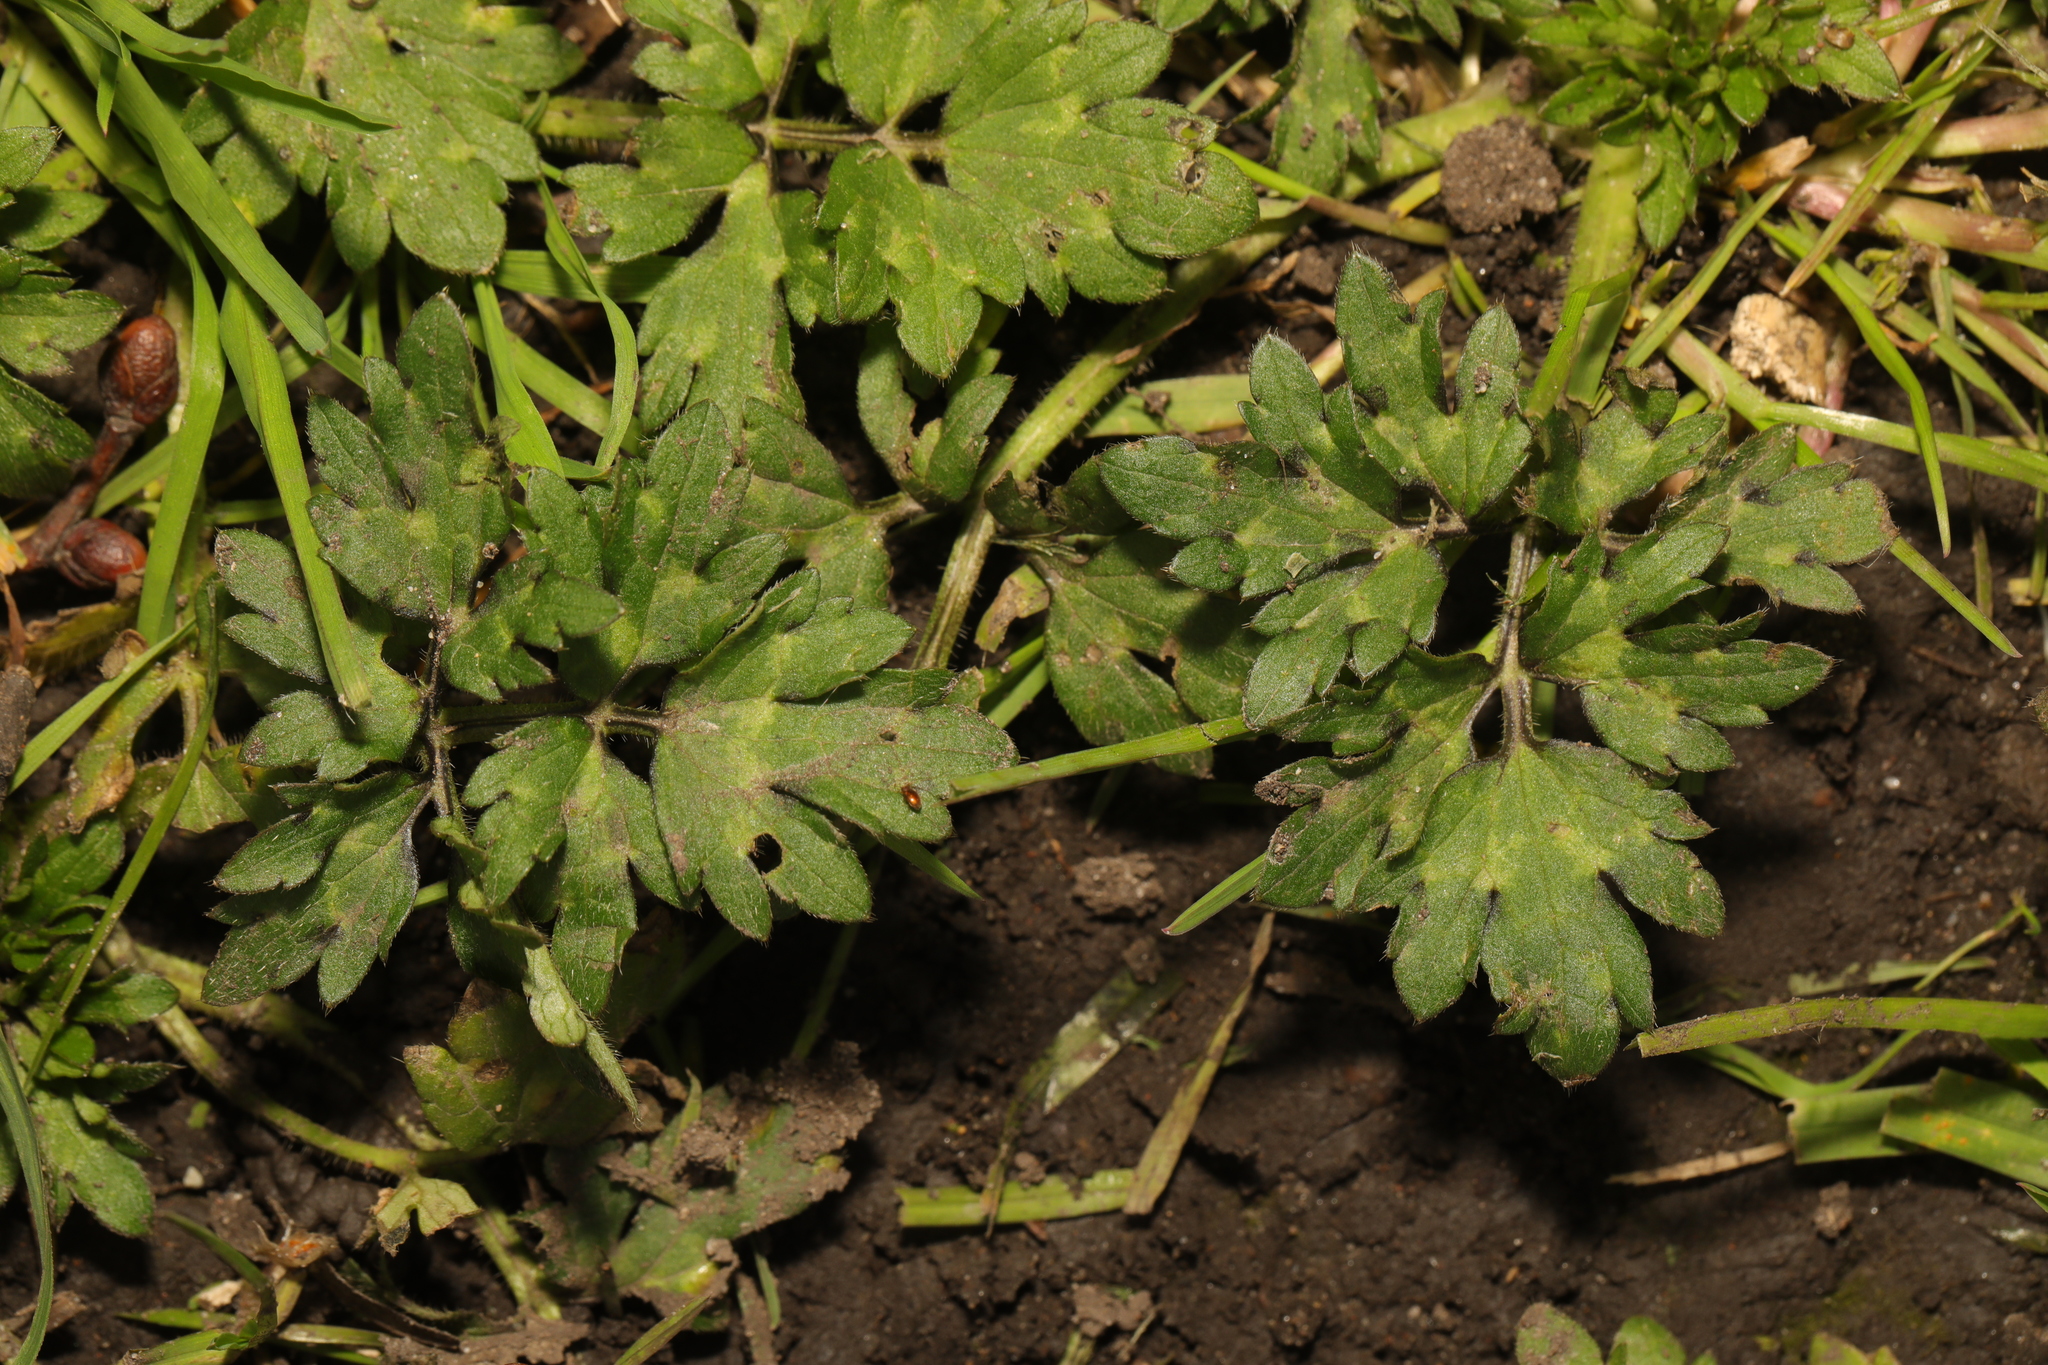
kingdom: Plantae
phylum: Tracheophyta
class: Magnoliopsida
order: Ranunculales
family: Ranunculaceae
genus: Ranunculus
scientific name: Ranunculus repens
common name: Creeping buttercup
